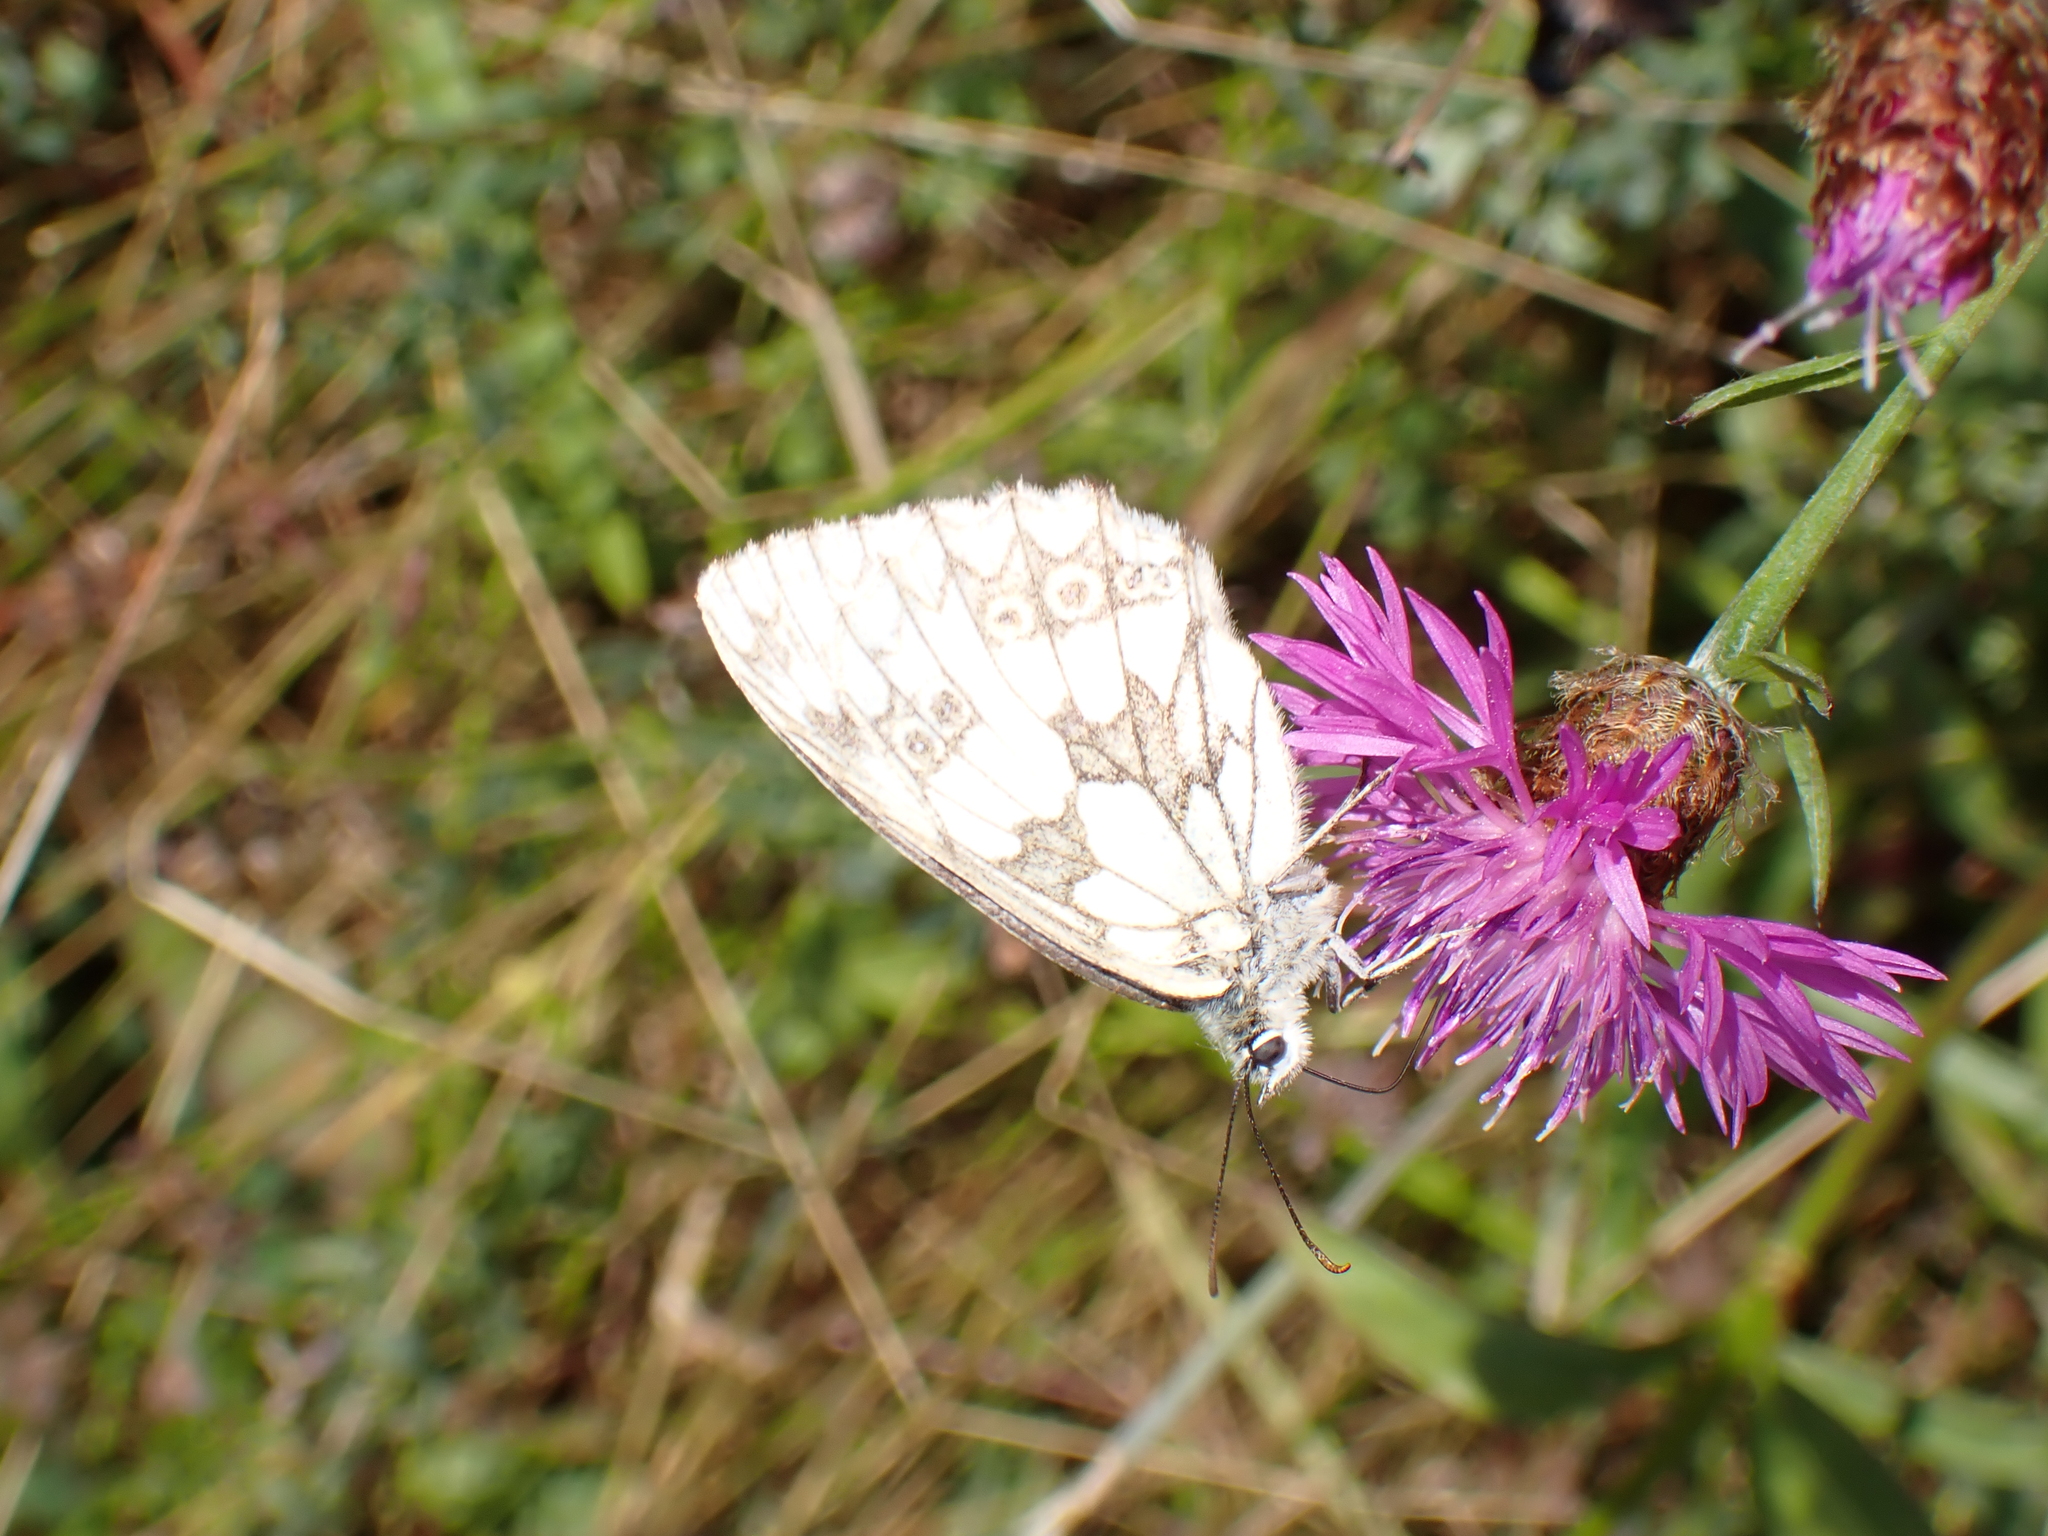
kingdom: Animalia
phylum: Arthropoda
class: Insecta
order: Lepidoptera
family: Nymphalidae
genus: Melanargia
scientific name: Melanargia galathea
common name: Marbled white
